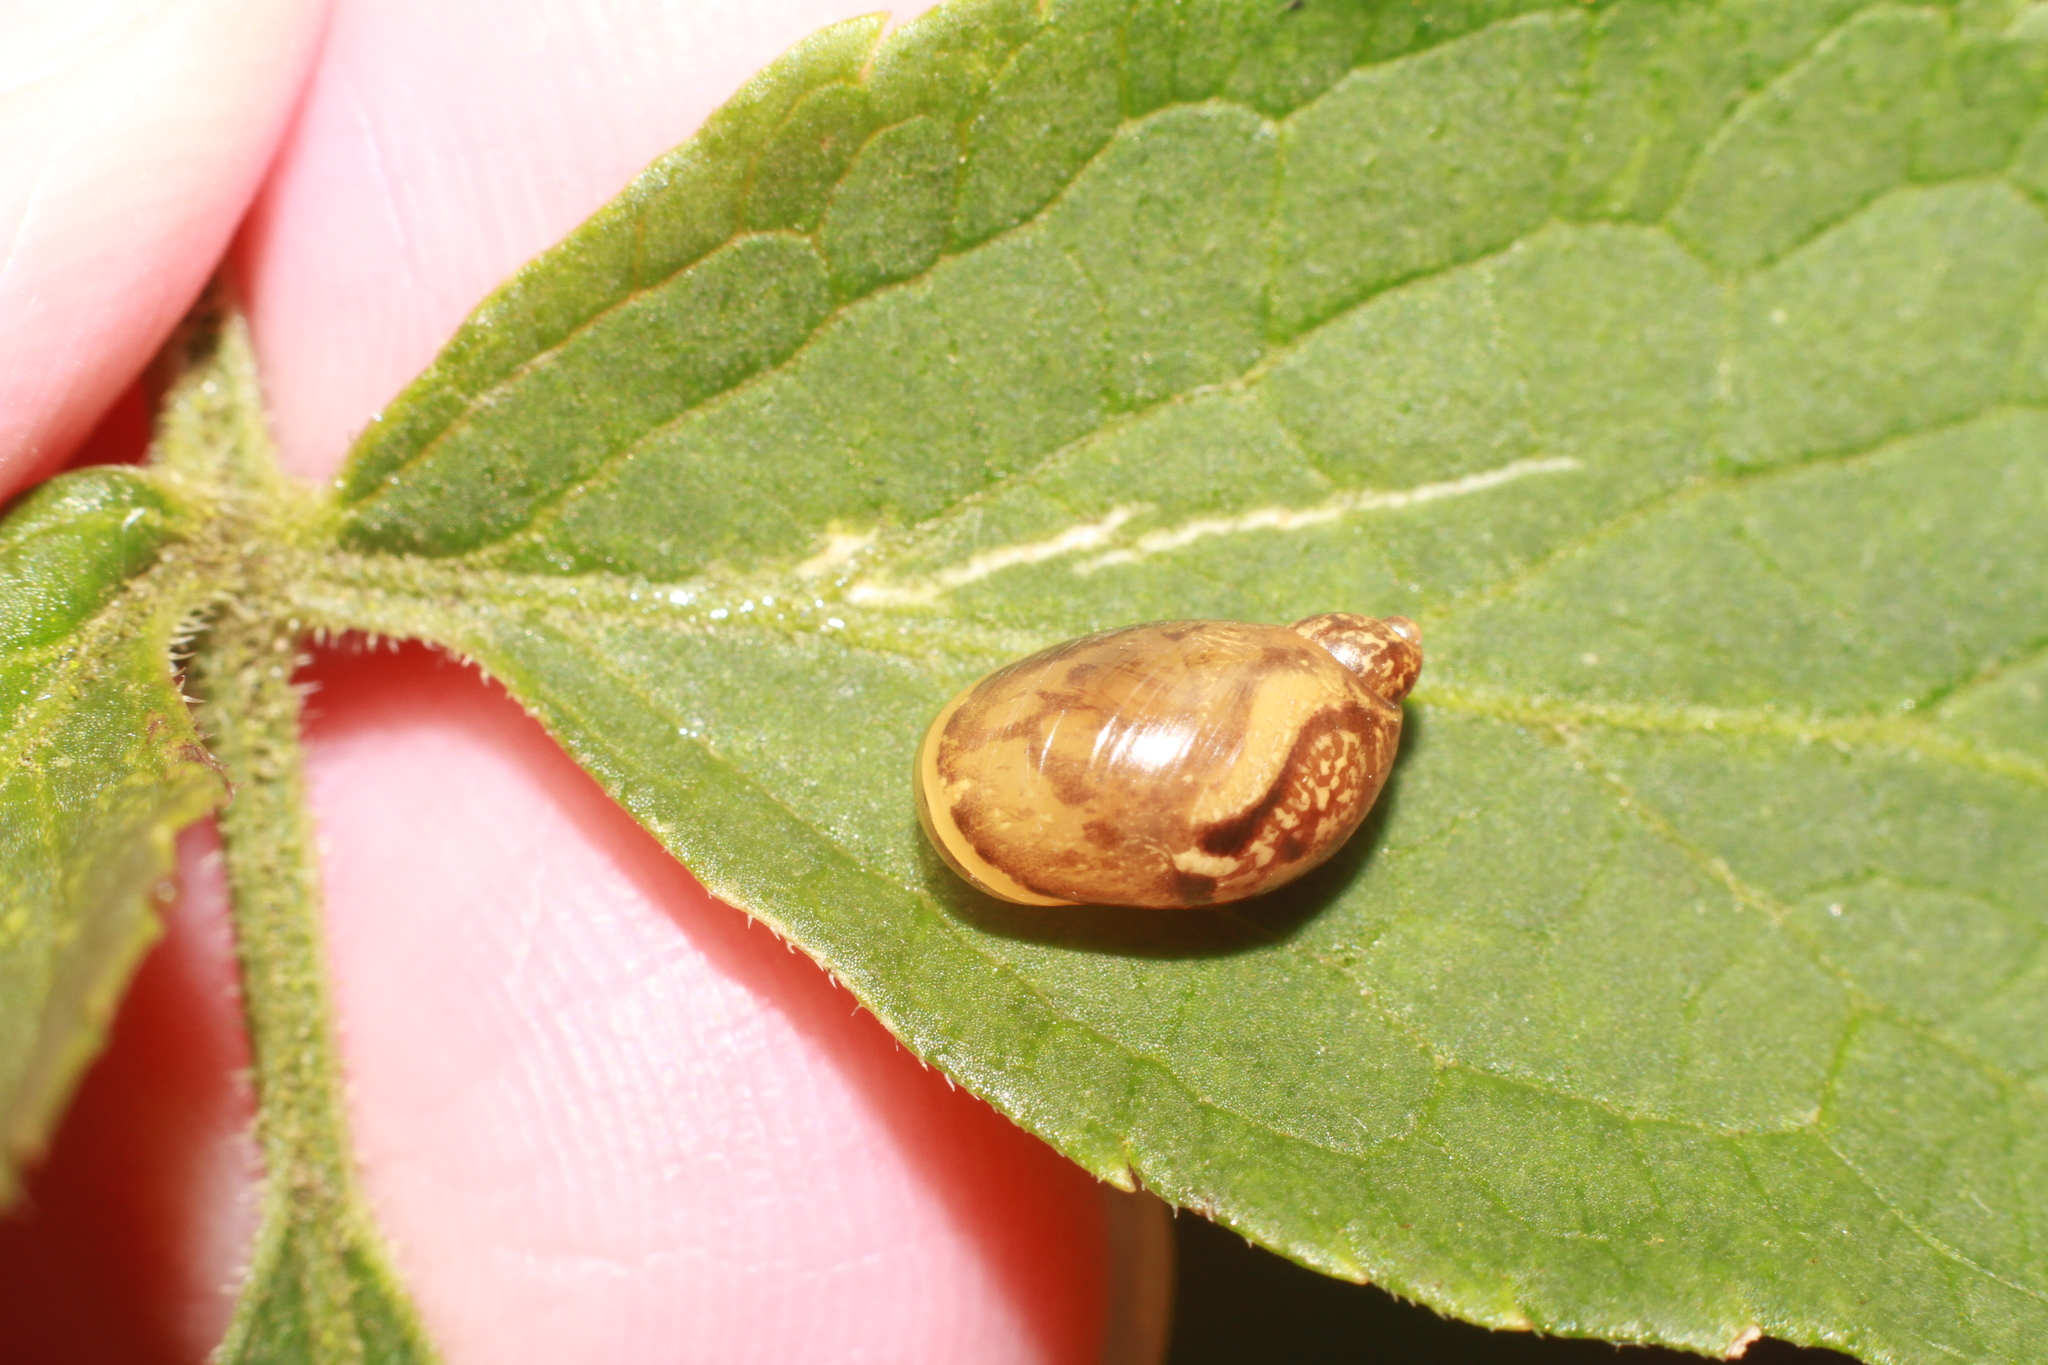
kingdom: Animalia
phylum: Mollusca
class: Gastropoda
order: Stylommatophora
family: Succineidae
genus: Succinea
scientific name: Succinea putris
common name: European ambersnail
